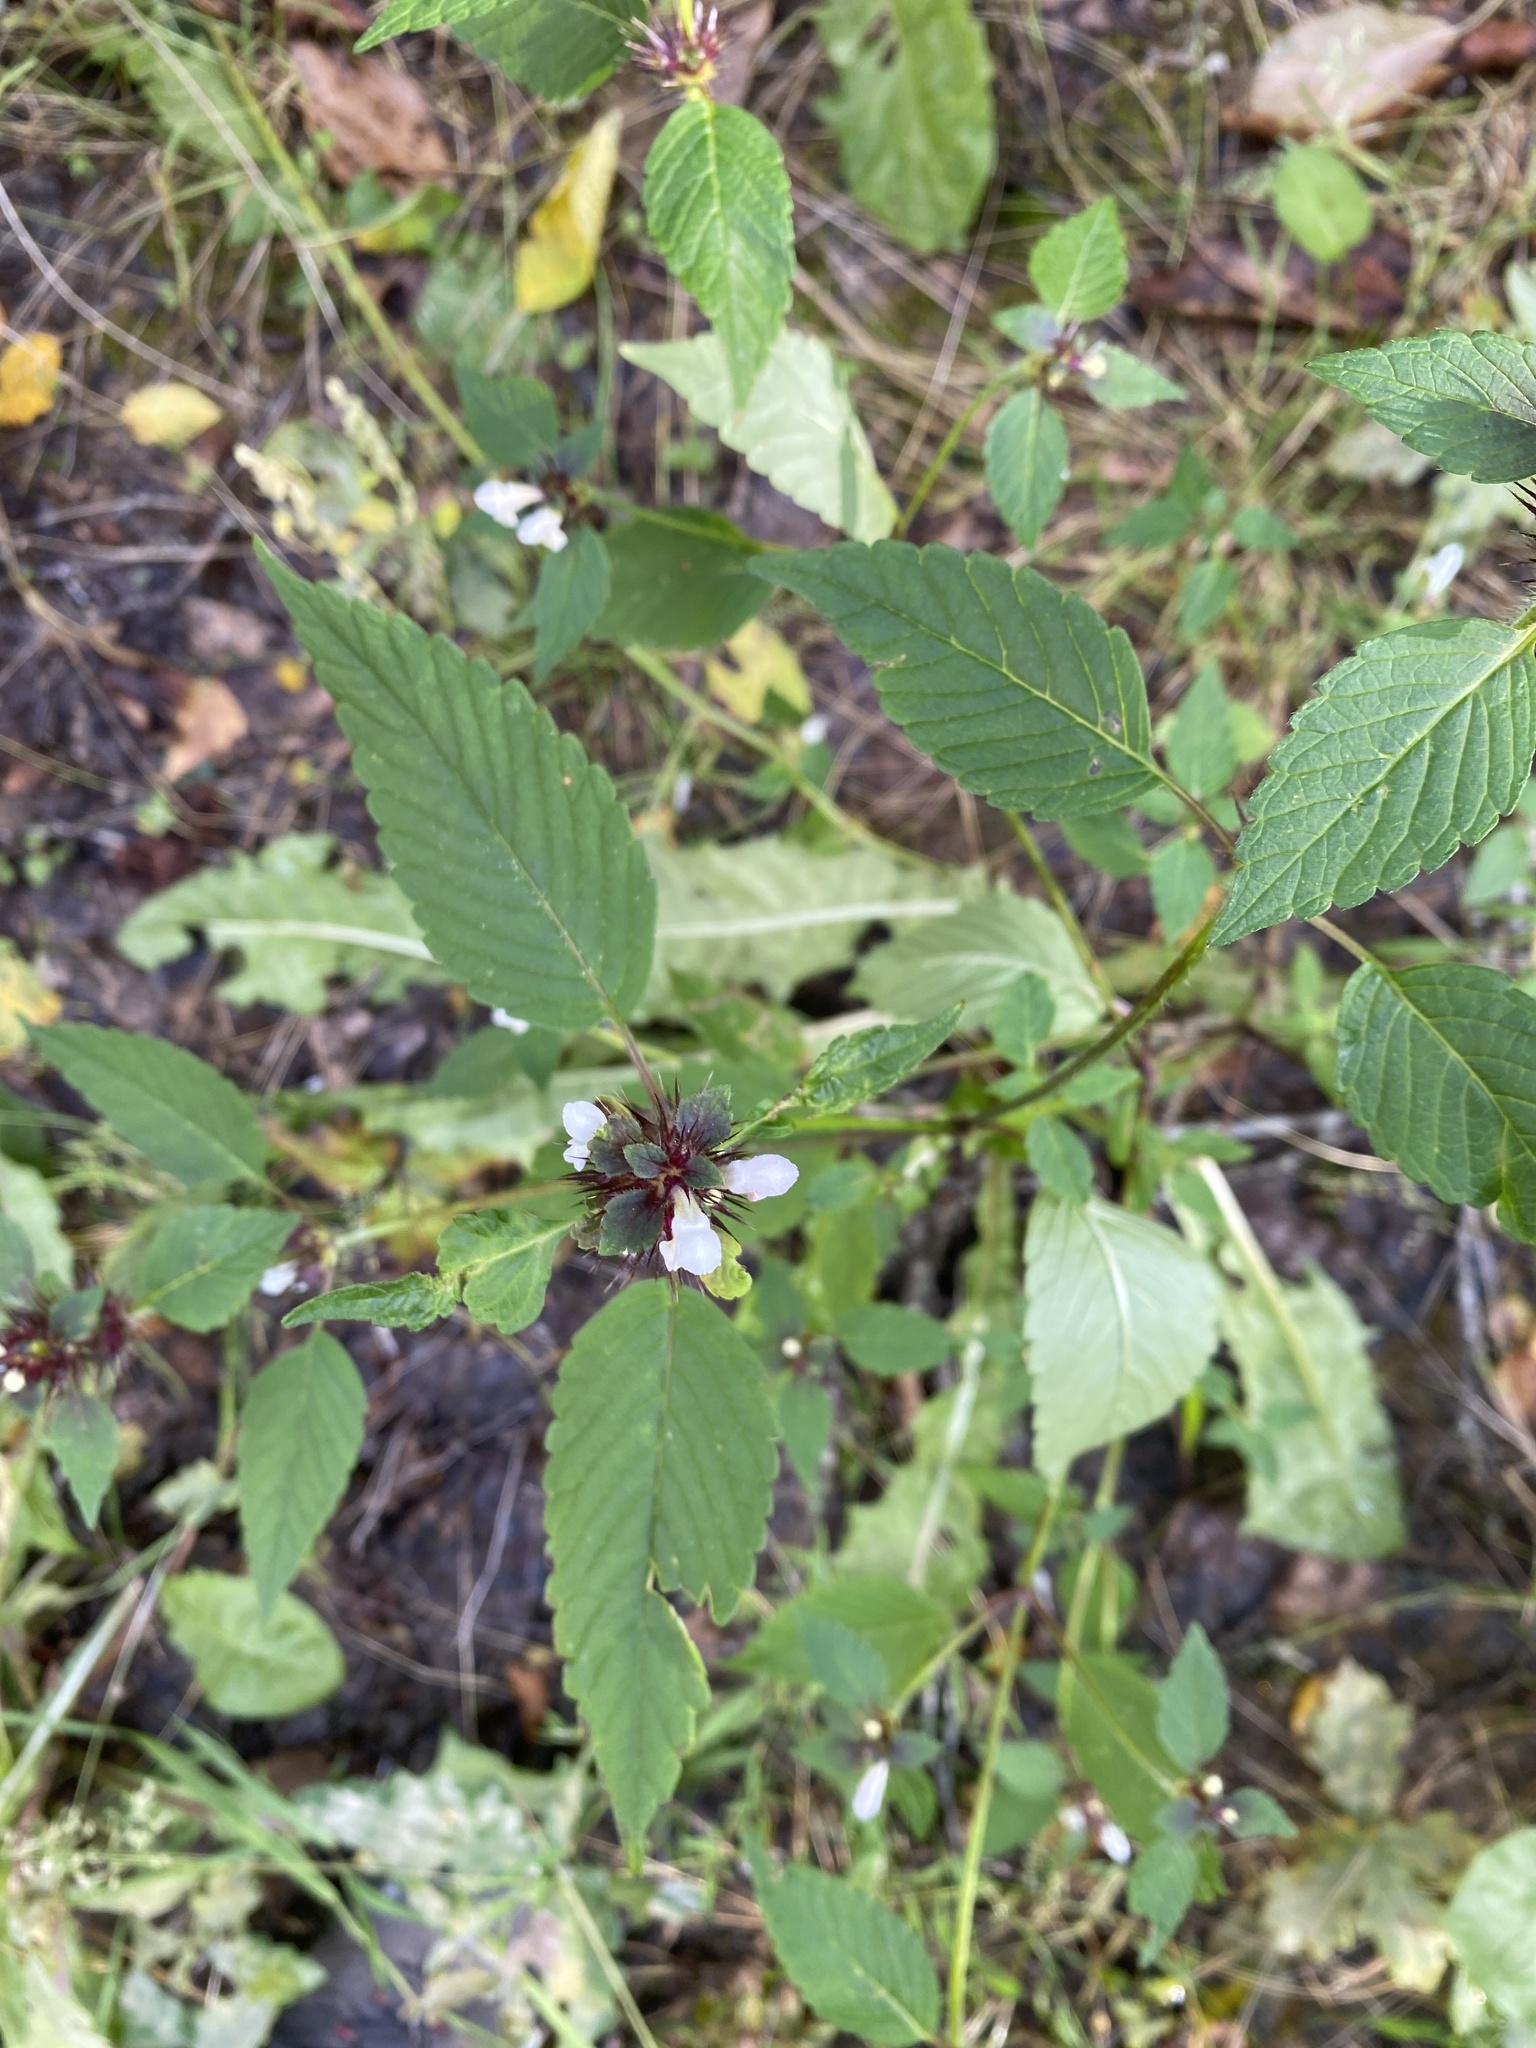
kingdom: Plantae
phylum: Tracheophyta
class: Magnoliopsida
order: Lamiales
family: Lamiaceae
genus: Galeopsis
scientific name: Galeopsis tetrahit
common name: Common hemp-nettle
